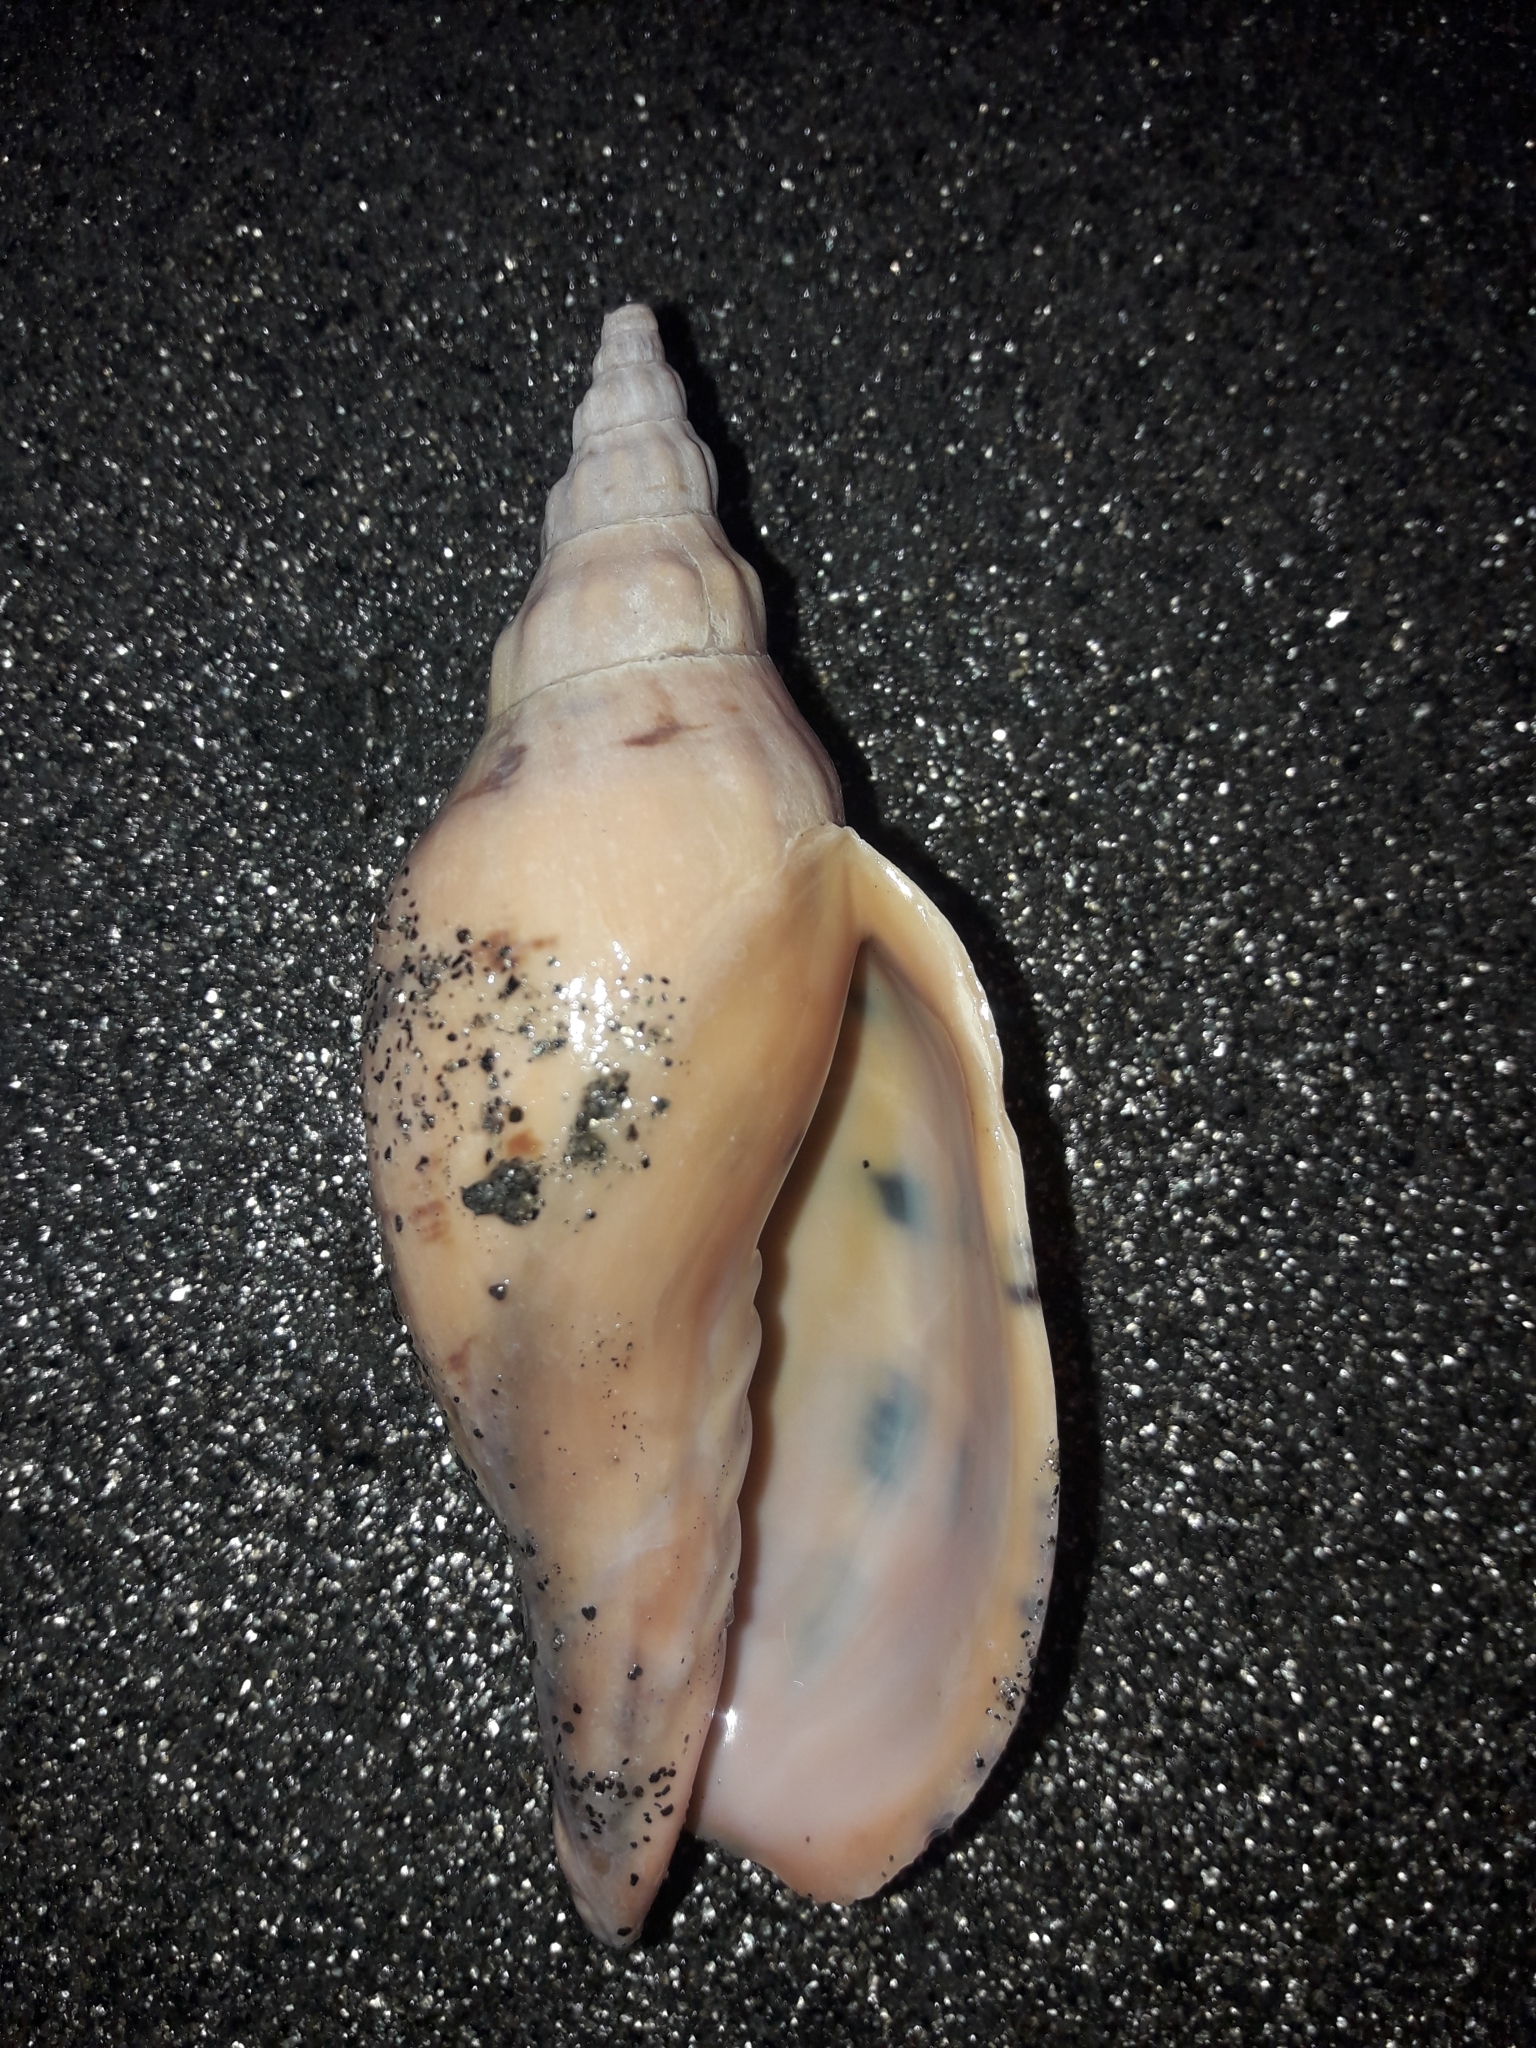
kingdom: Animalia
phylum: Mollusca
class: Gastropoda
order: Neogastropoda
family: Volutidae
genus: Alcithoe
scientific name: Alcithoe arabica
